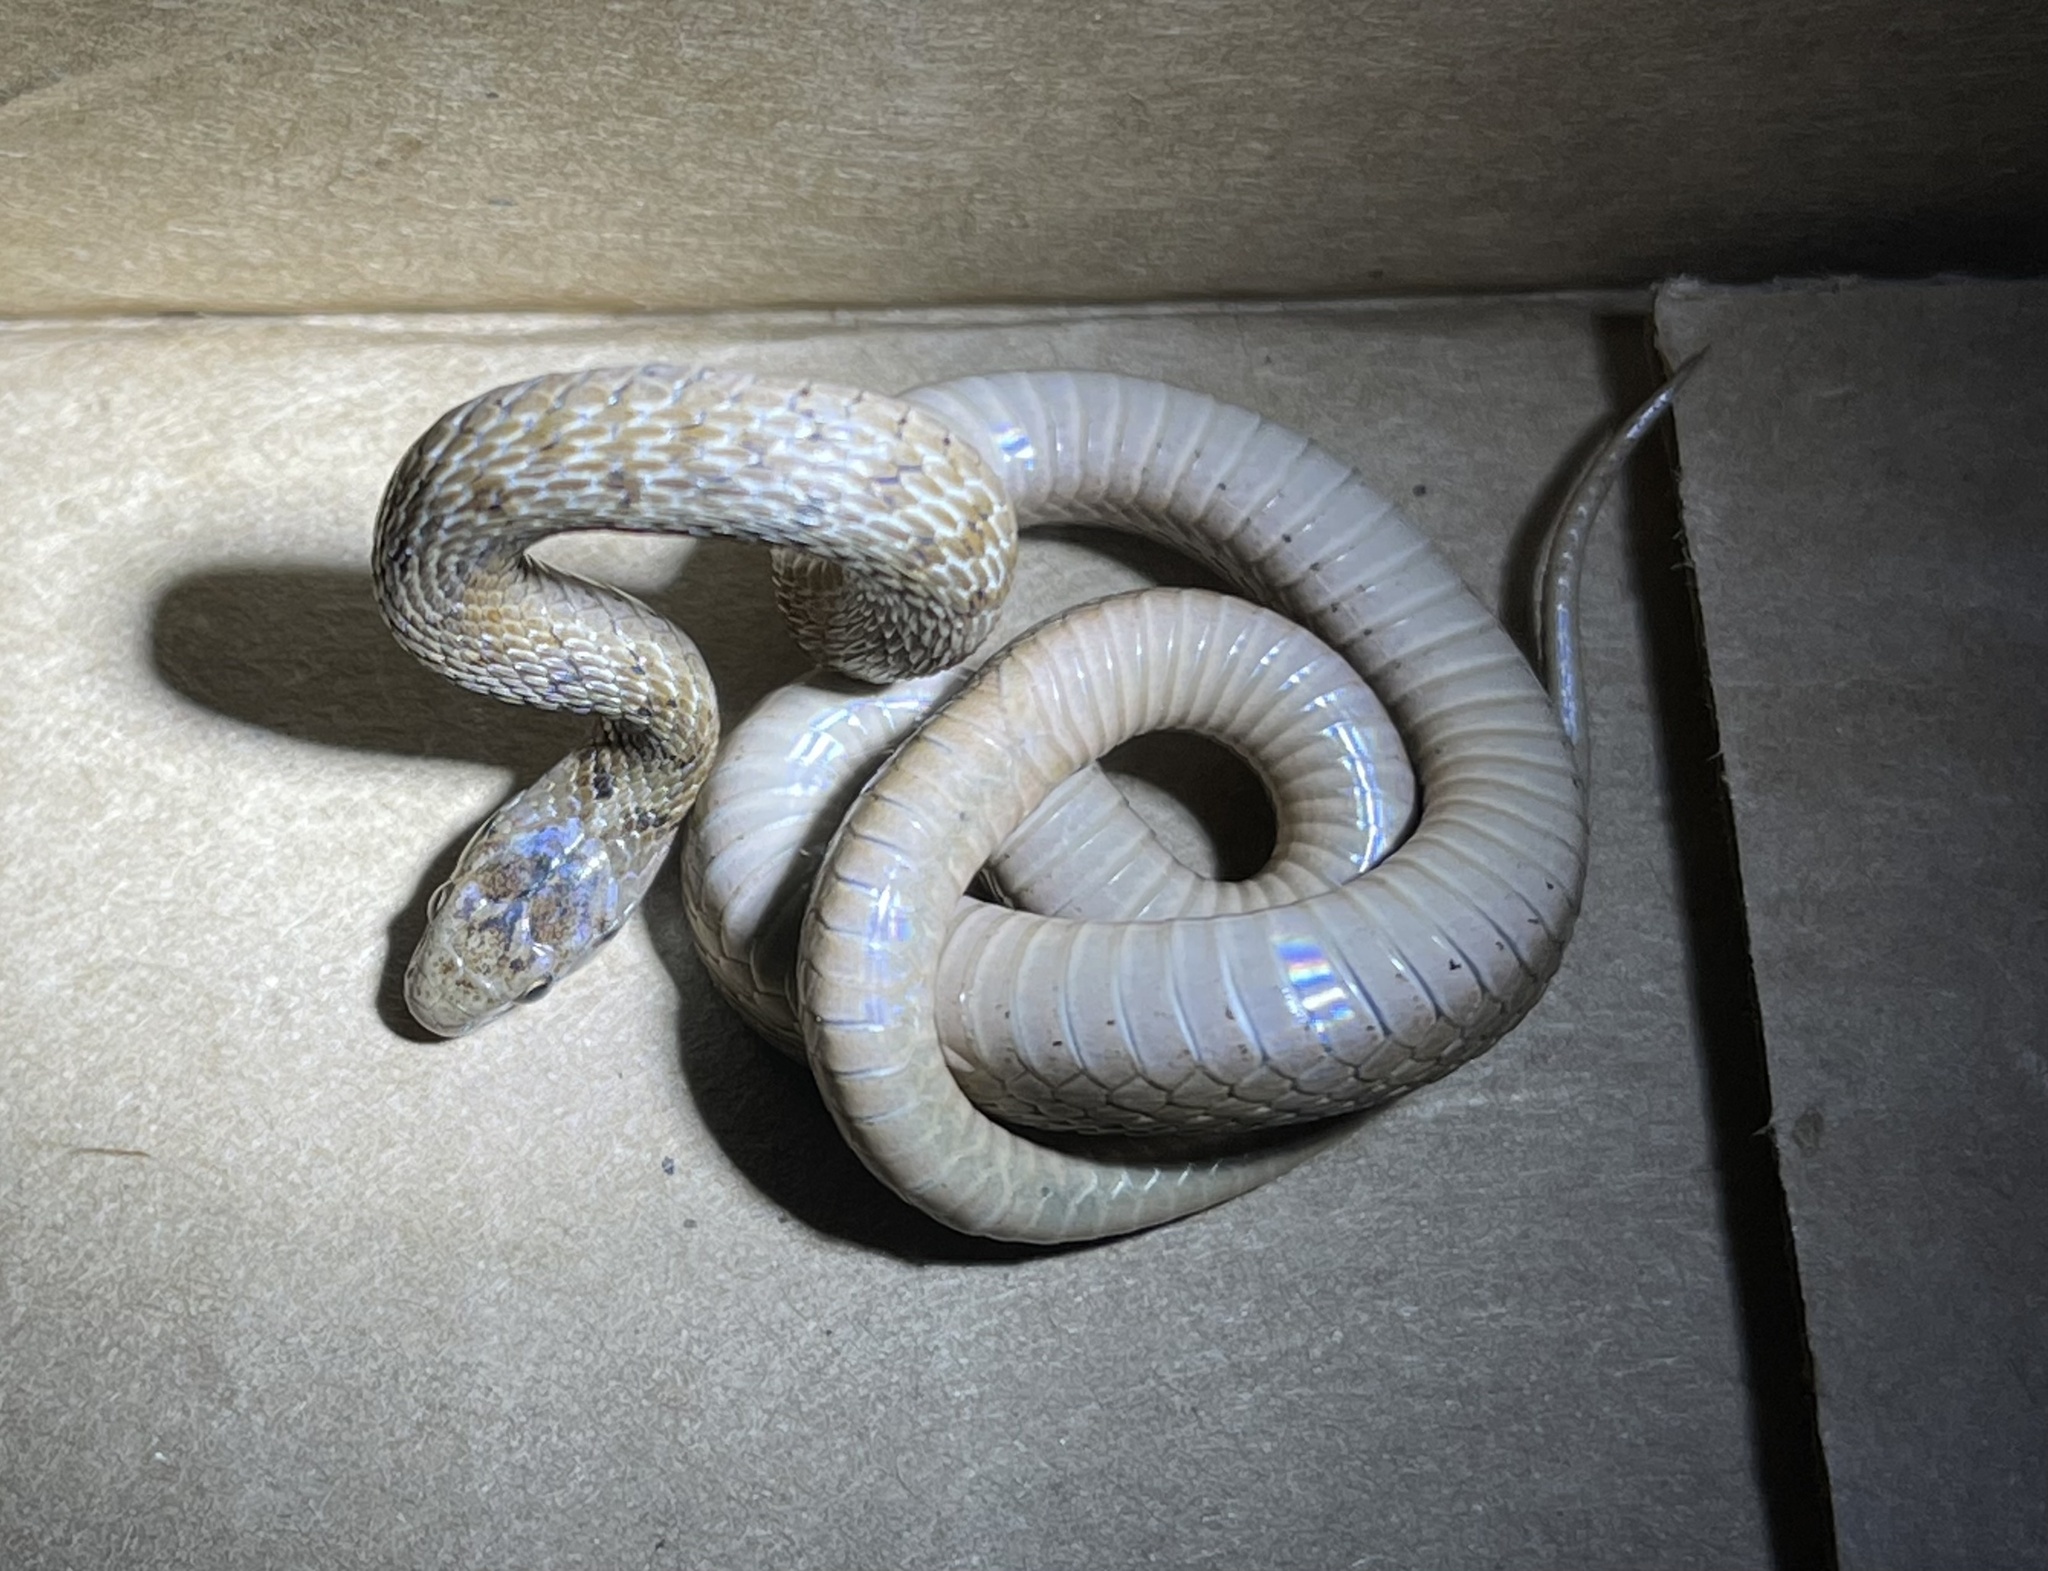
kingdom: Animalia
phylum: Chordata
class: Squamata
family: Colubridae
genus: Storeria
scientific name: Storeria dekayi
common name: (dekay’s) brown snake
